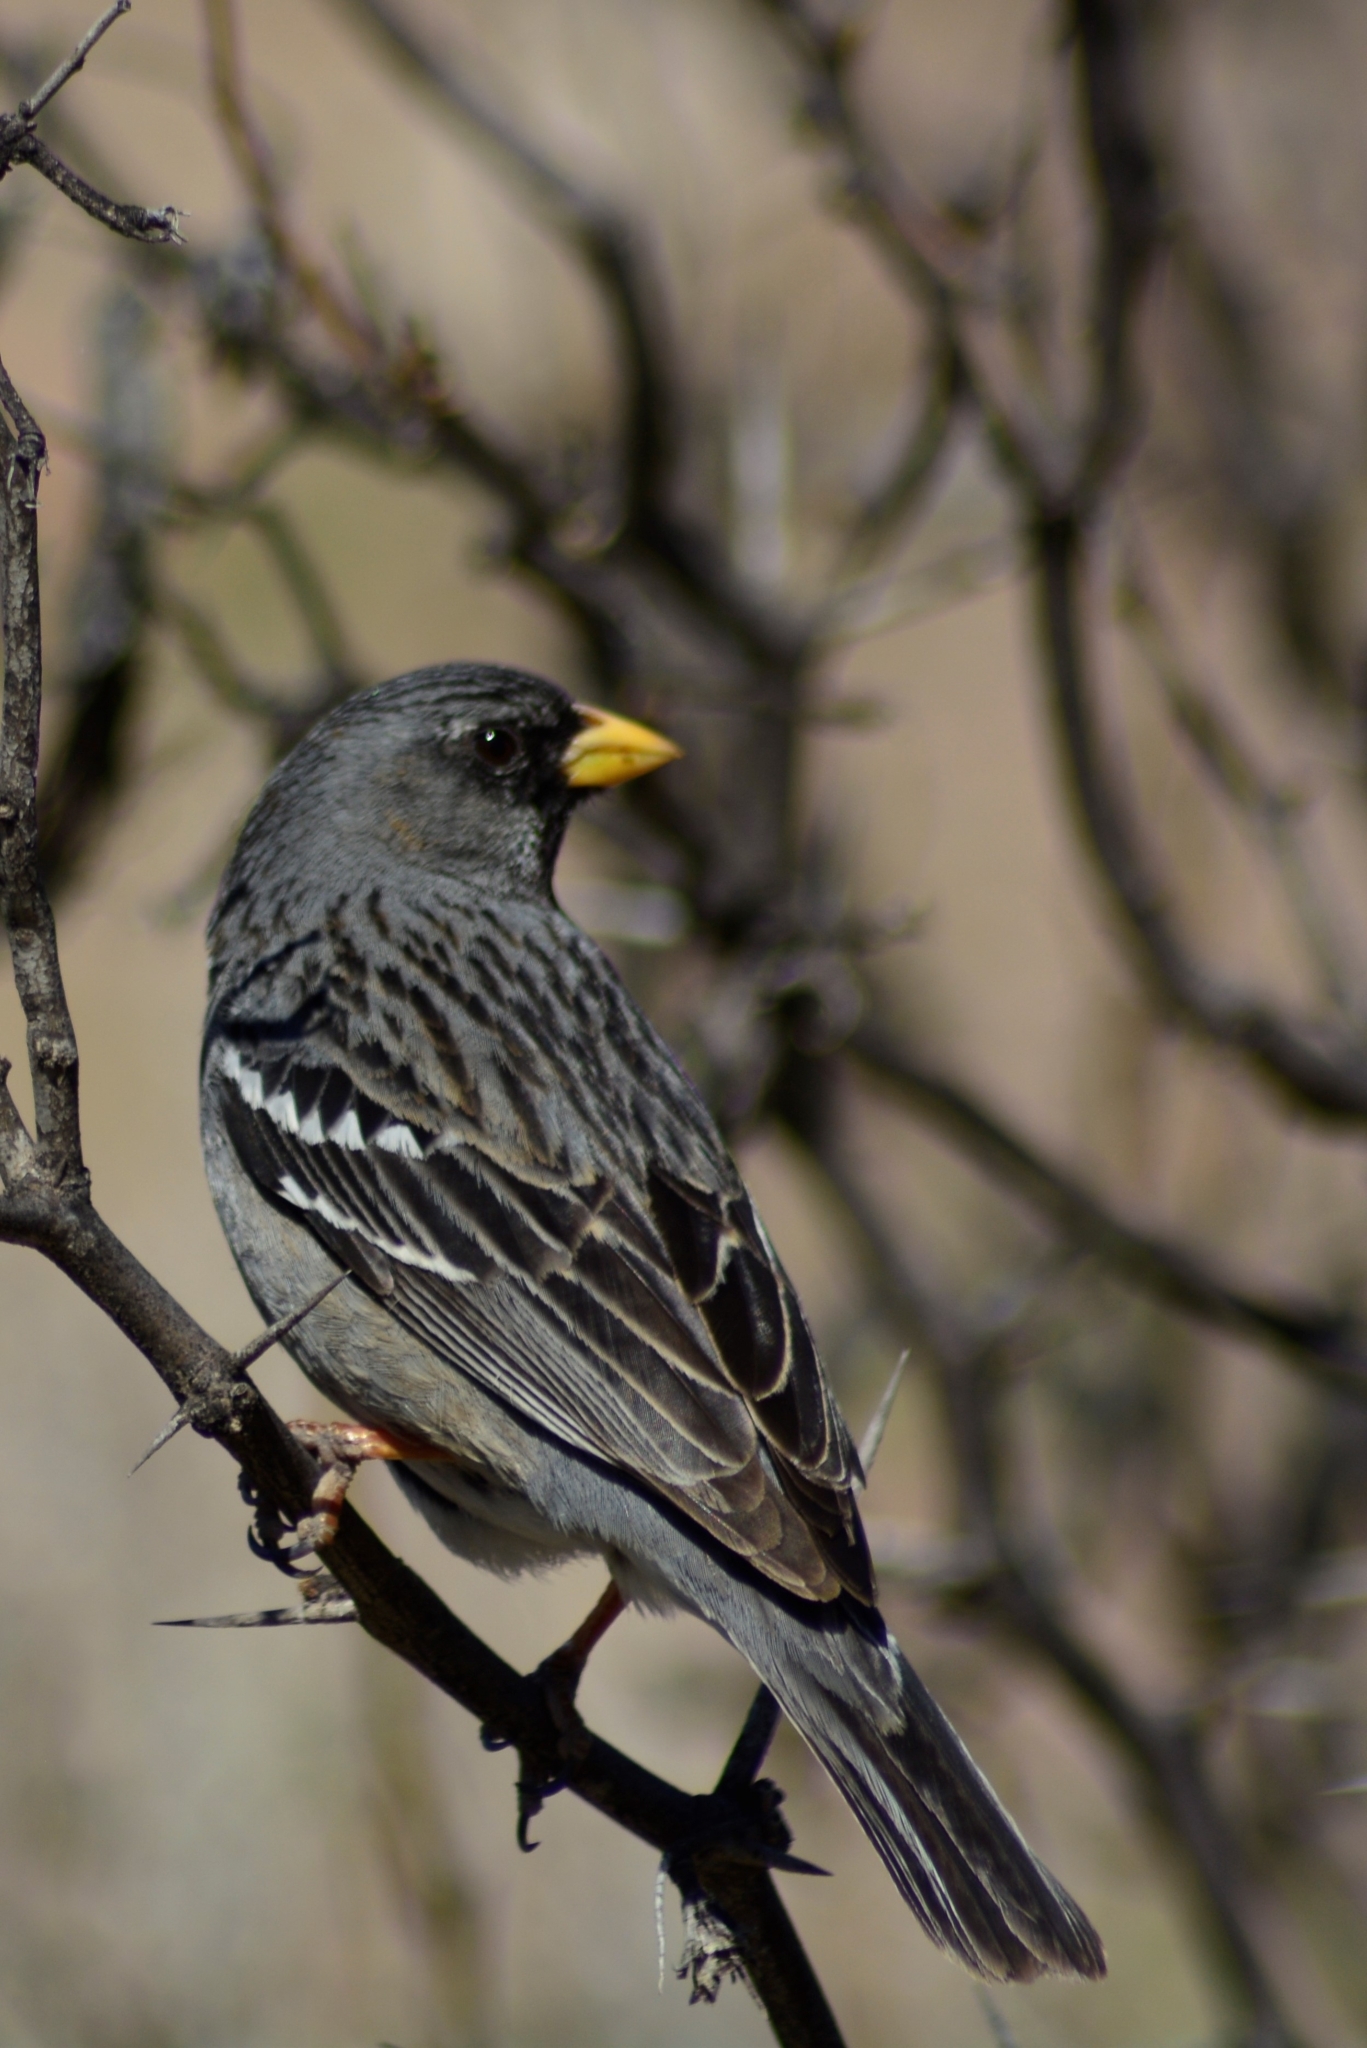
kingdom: Animalia
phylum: Chordata
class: Aves
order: Passeriformes
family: Thraupidae
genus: Rhopospina
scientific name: Rhopospina fruticeti
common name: Mourning sierra finch
